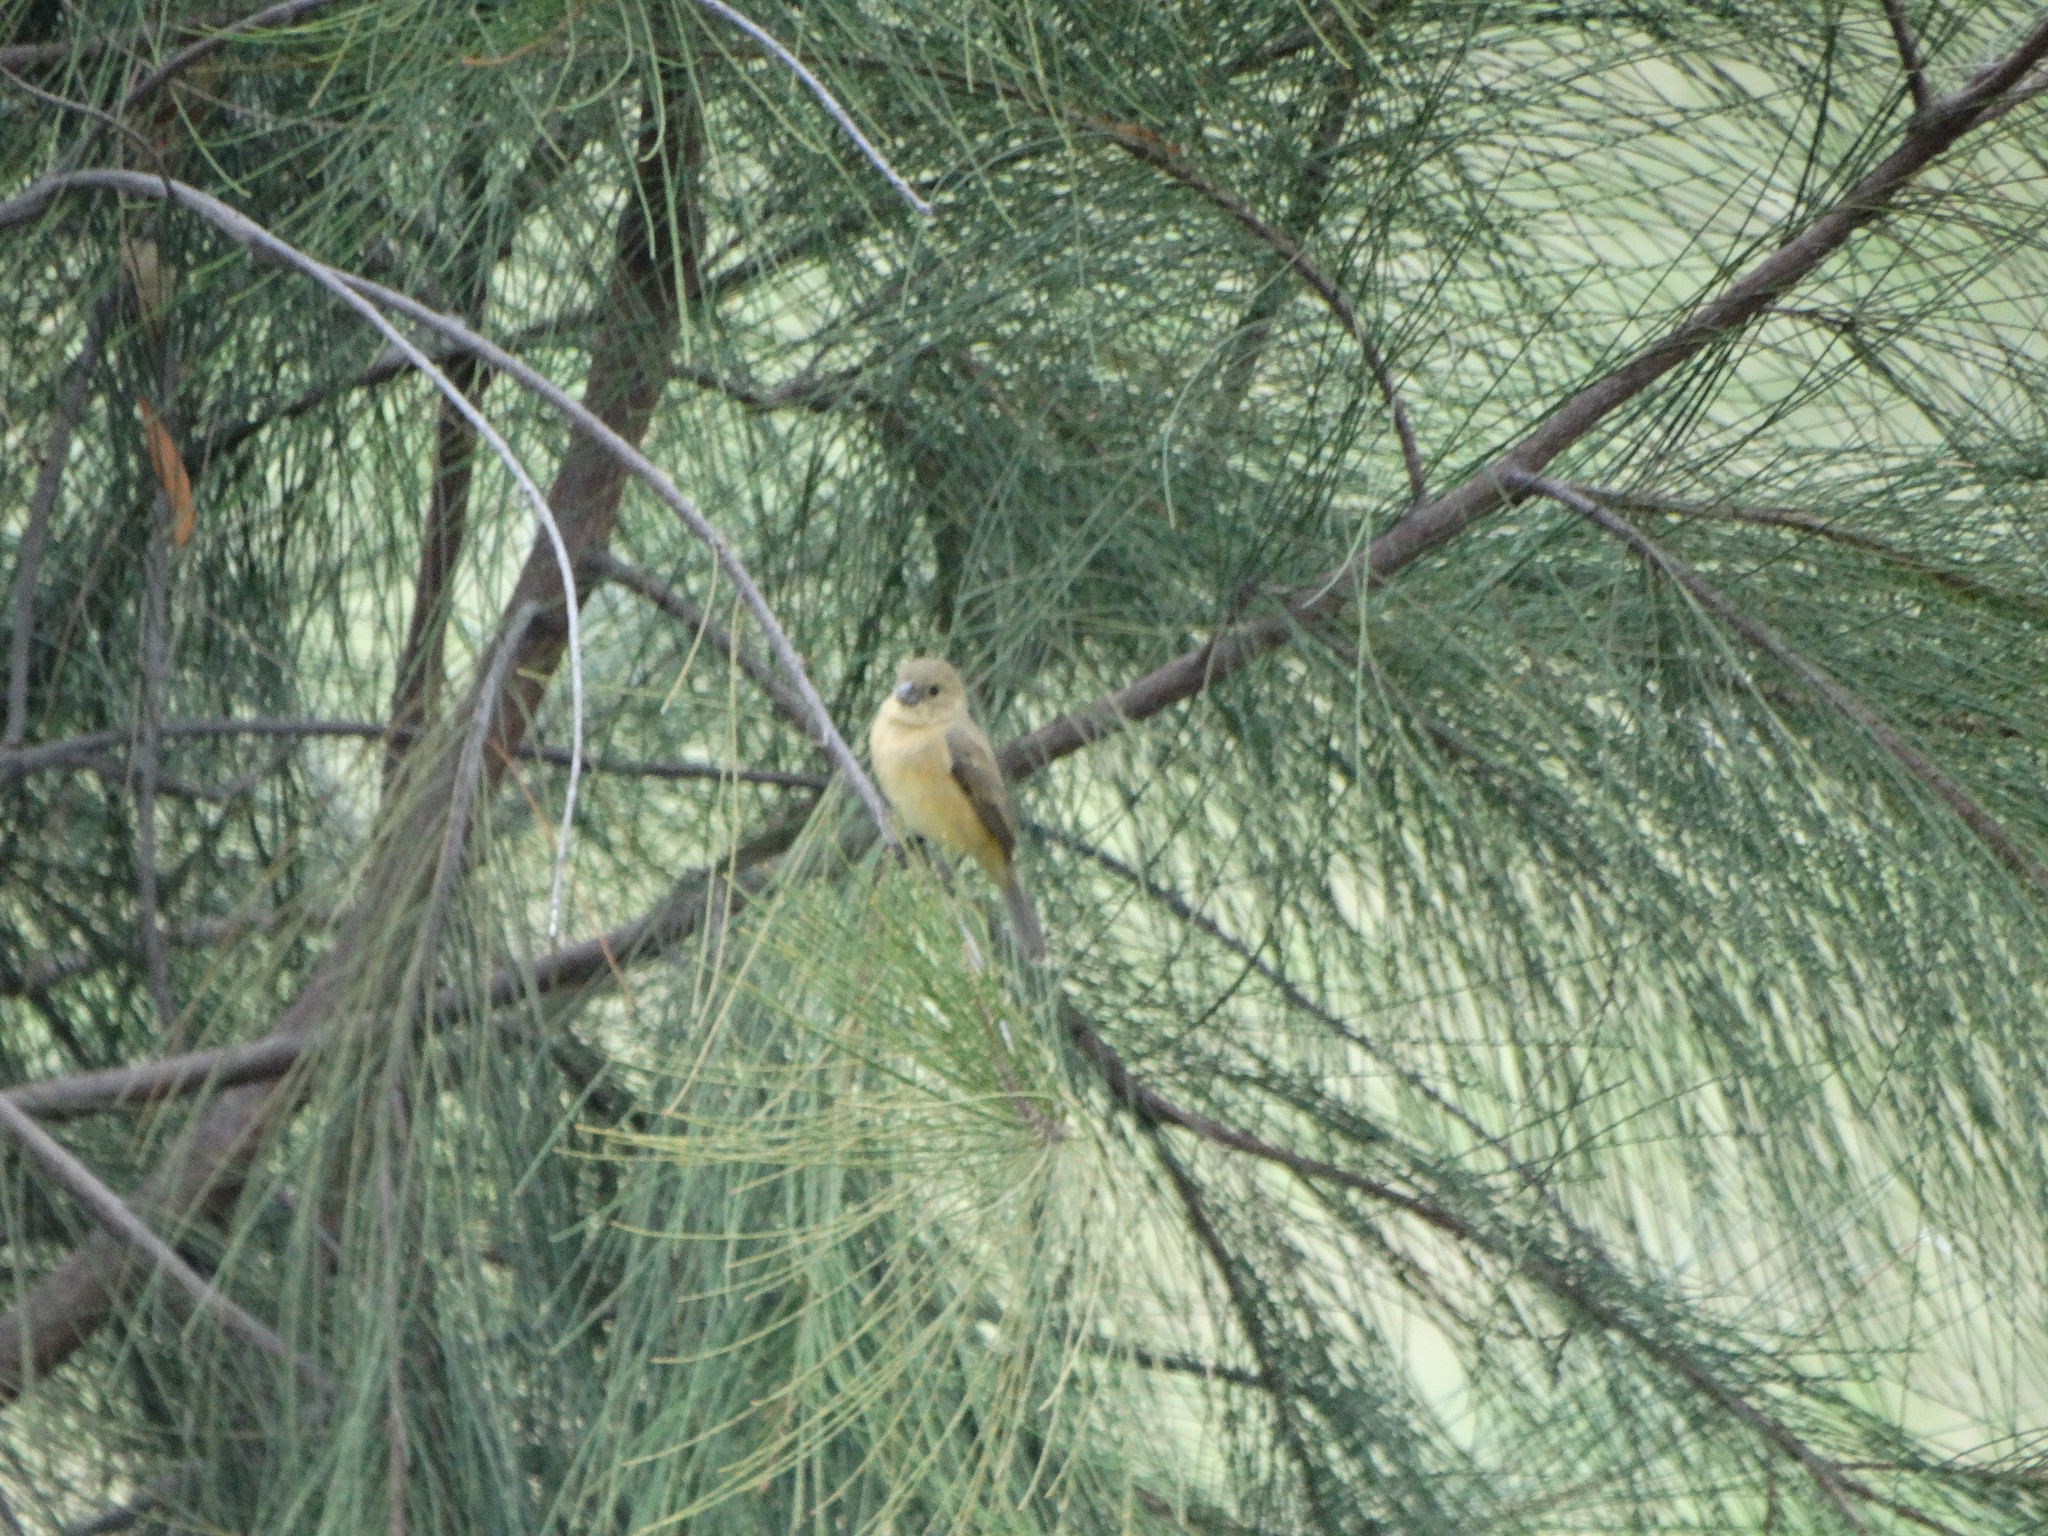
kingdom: Animalia
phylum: Chordata
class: Aves
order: Passeriformes
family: Thraupidae
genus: Sporophila
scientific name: Sporophila torqueola
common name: White-collared seedeater
